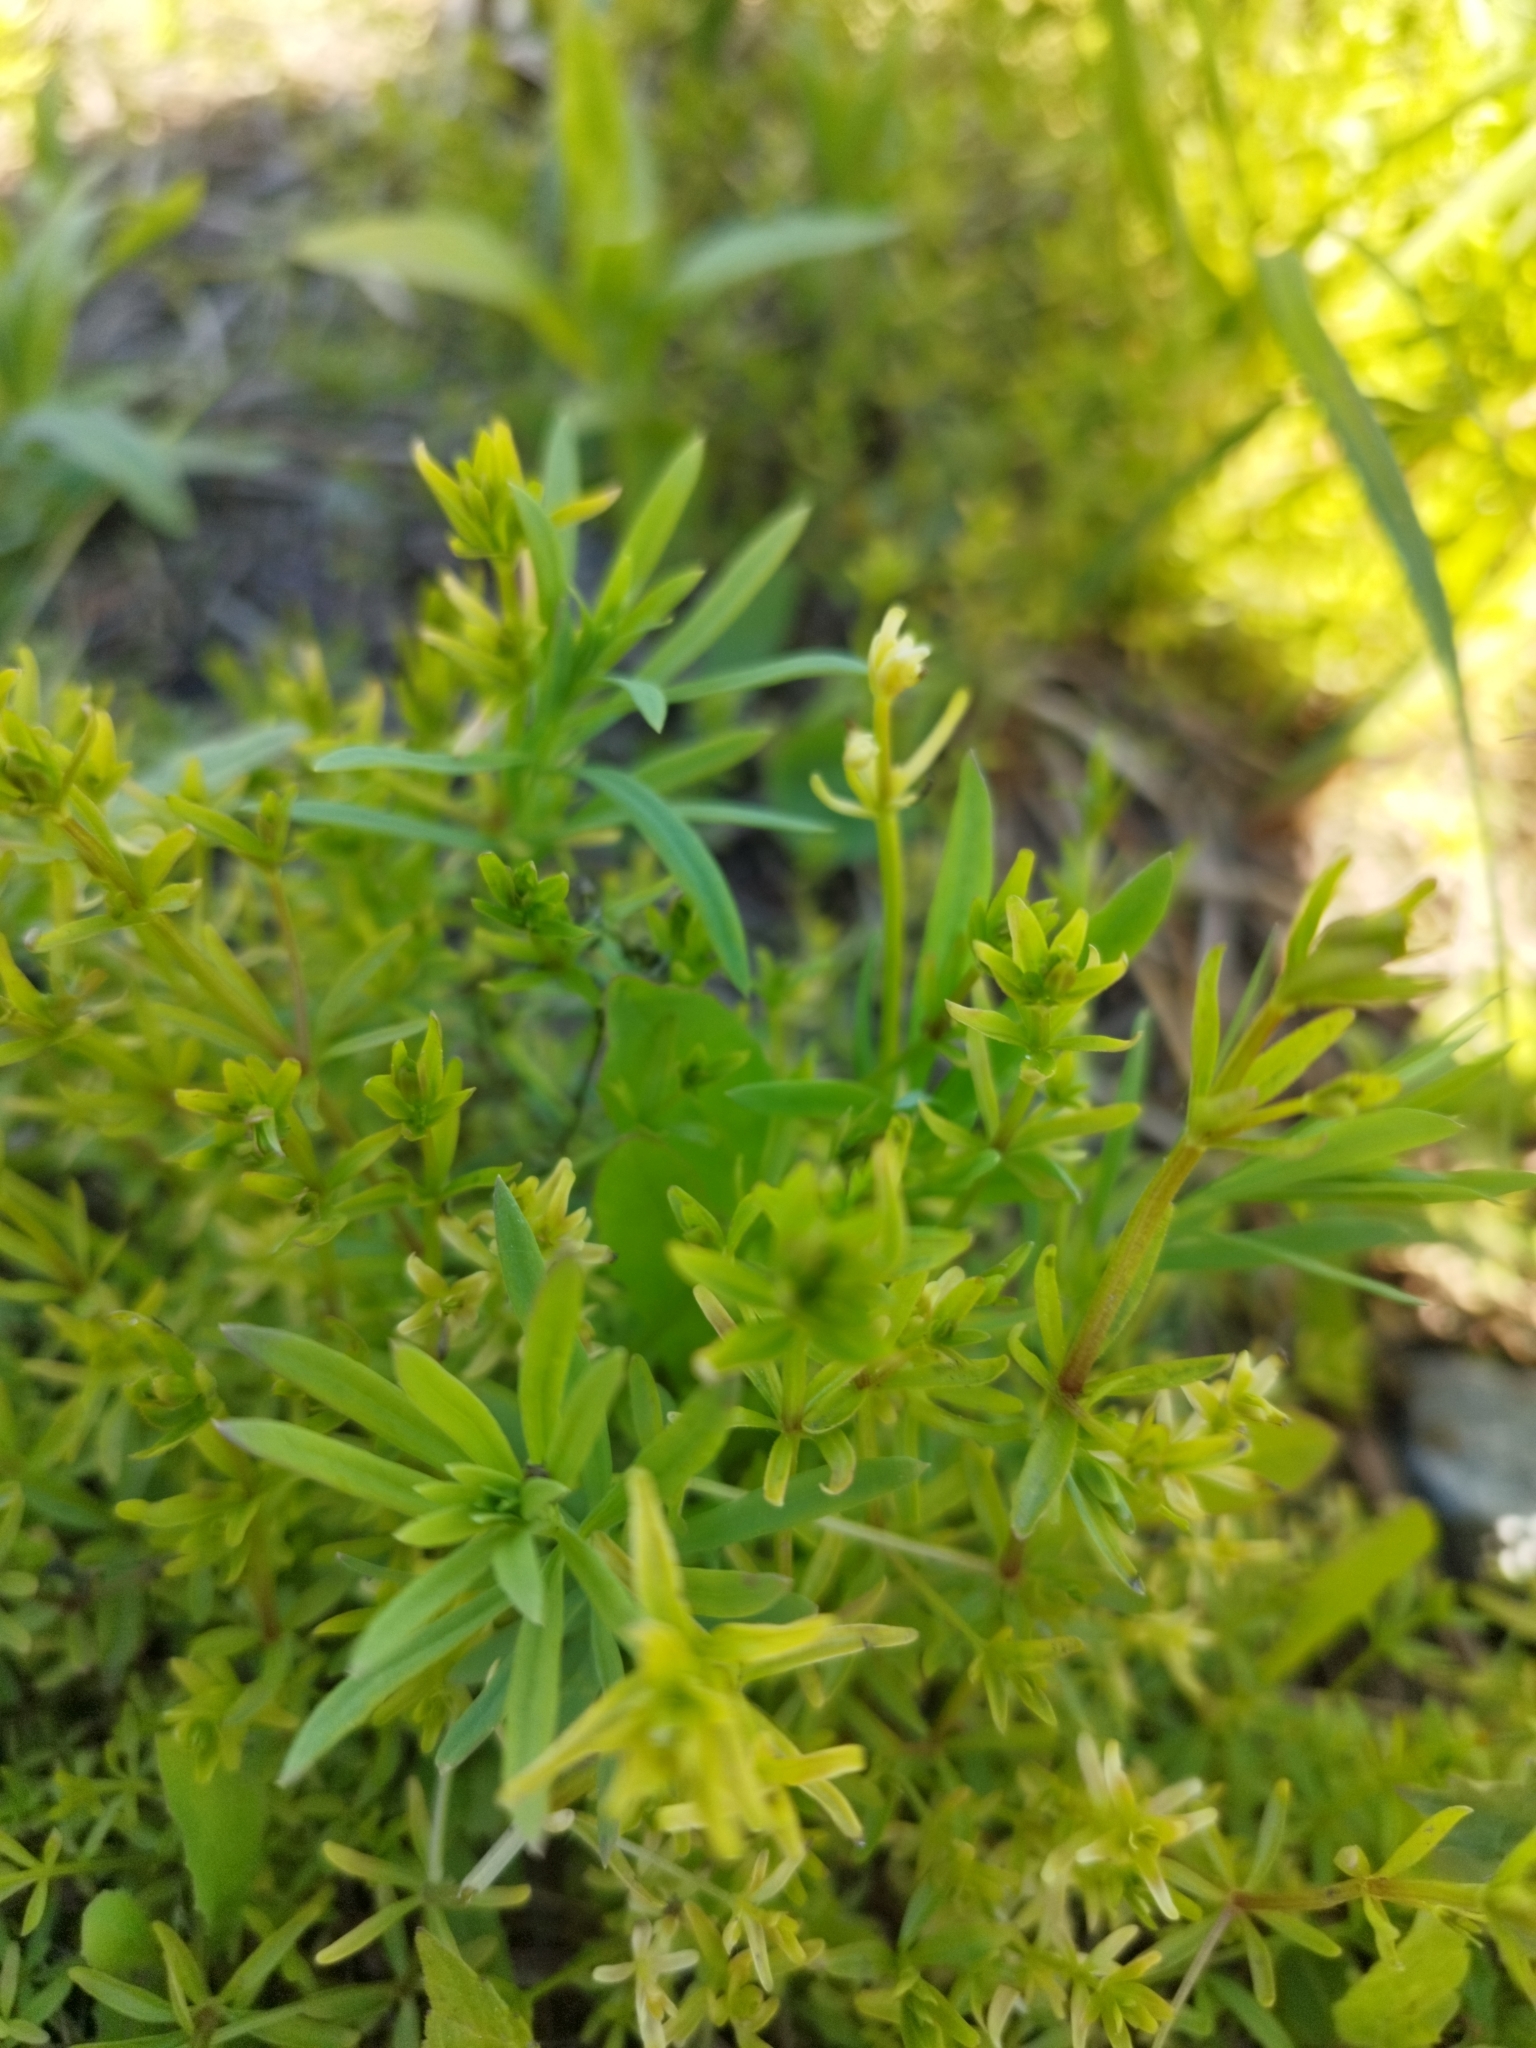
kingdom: Plantae
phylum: Tracheophyta
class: Magnoliopsida
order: Gentianales
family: Rubiaceae
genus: Galium
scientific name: Galium mollugo
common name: Hedge bedstraw
